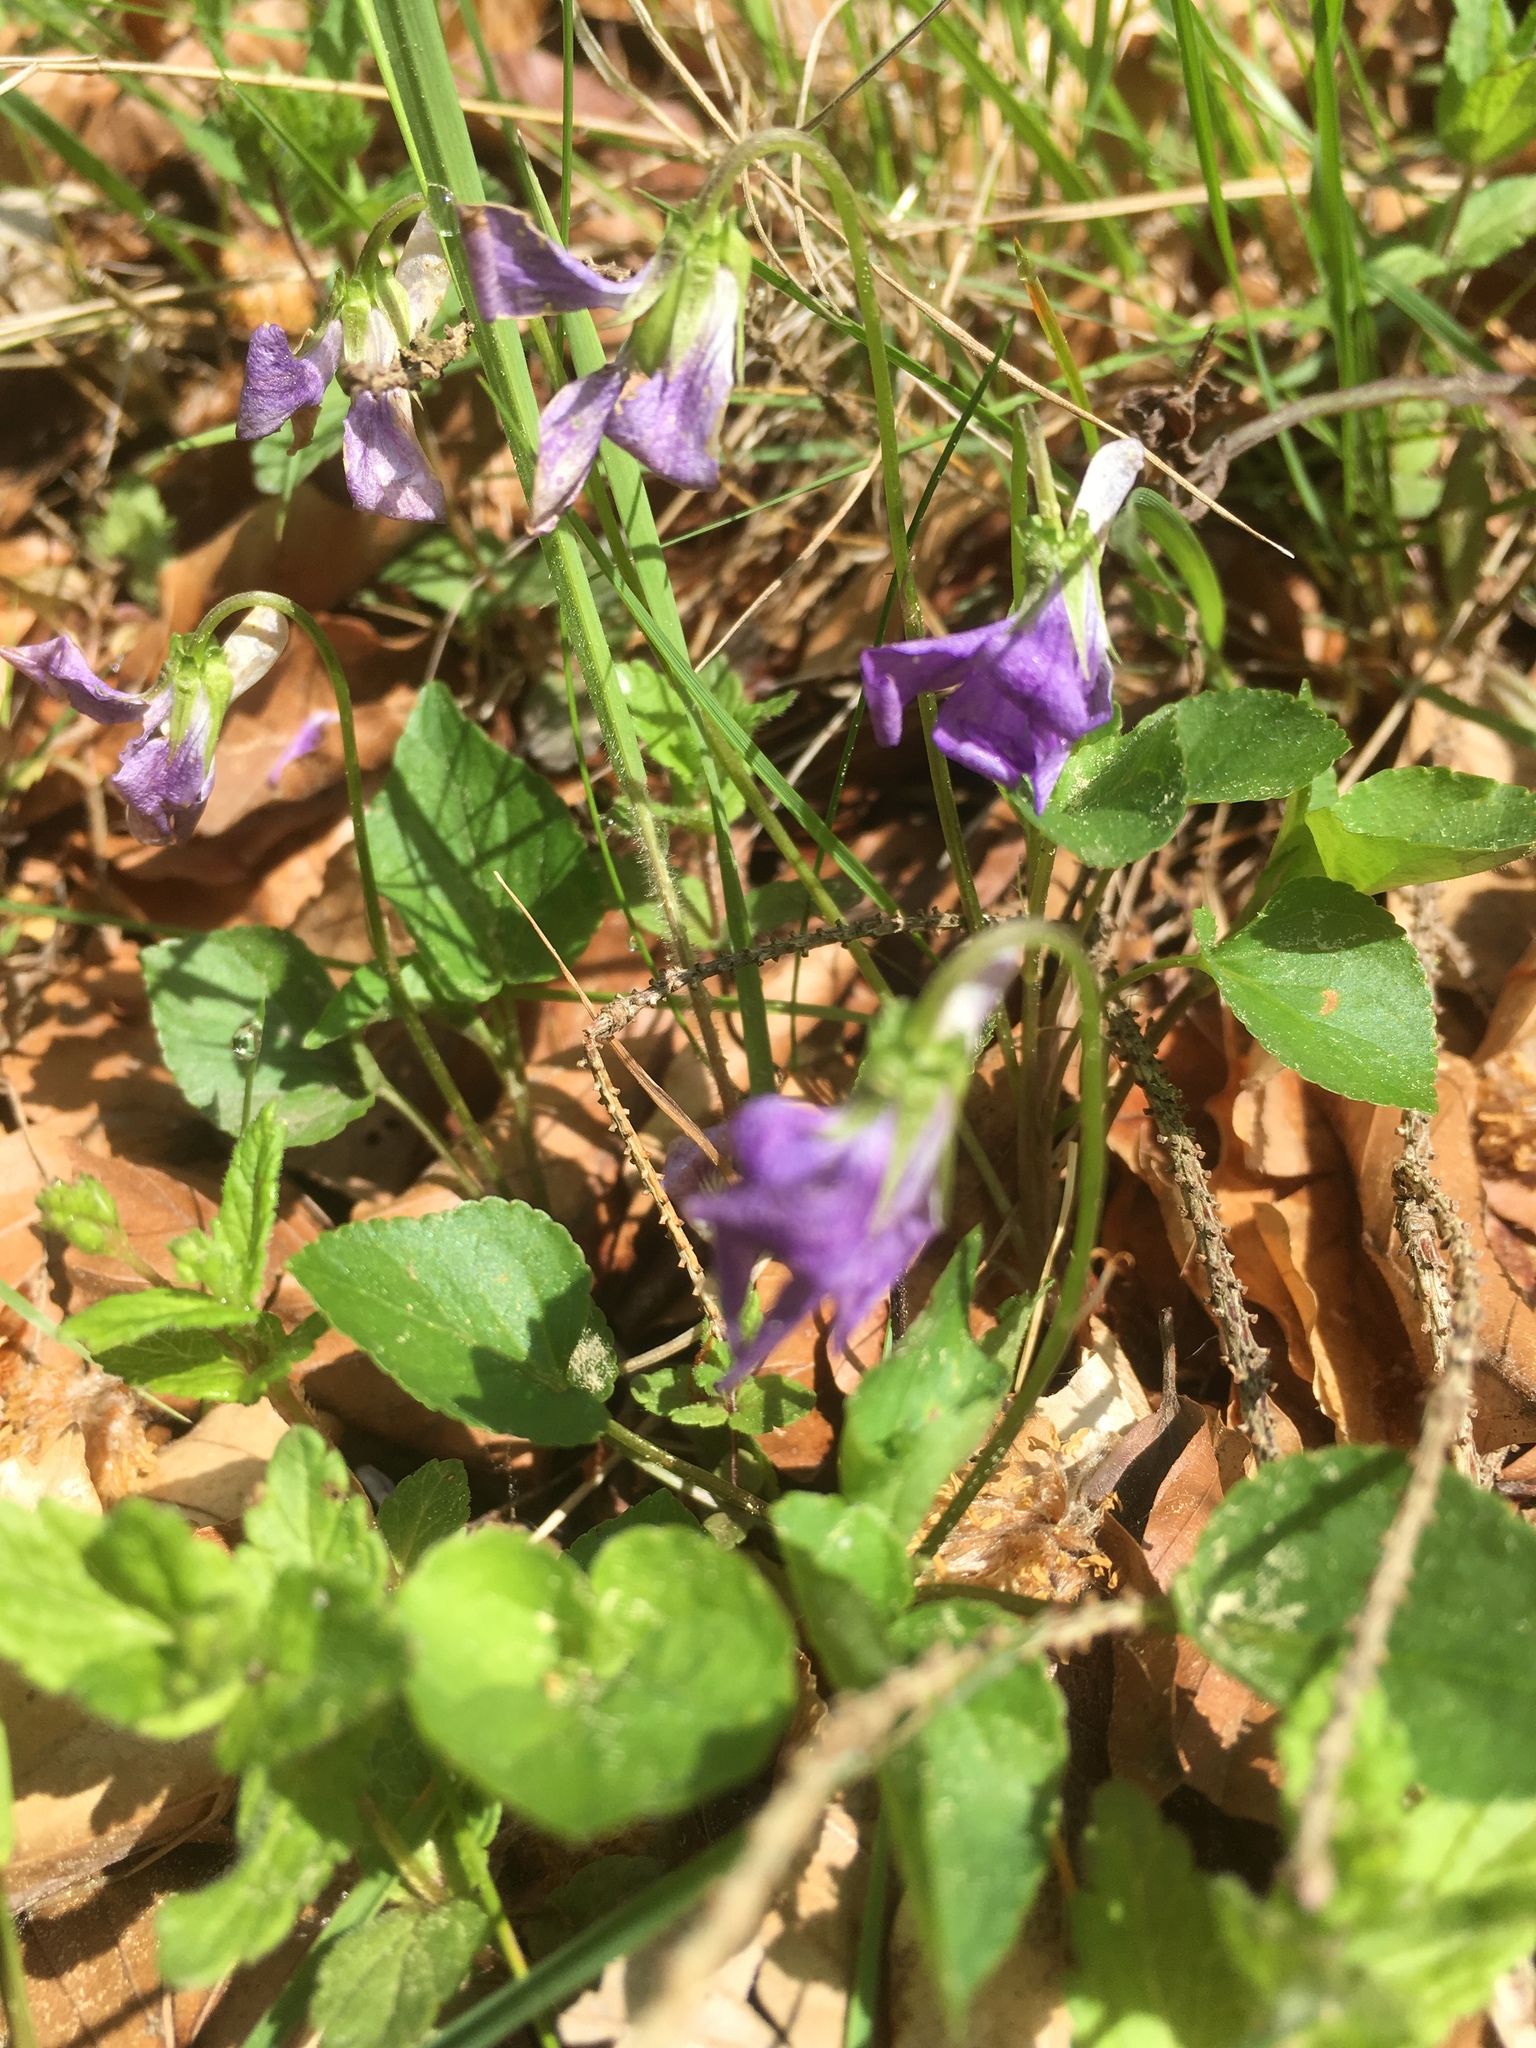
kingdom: Plantae
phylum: Tracheophyta
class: Magnoliopsida
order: Malpighiales
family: Violaceae
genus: Viola
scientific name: Viola riviniana
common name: Common dog-violet
